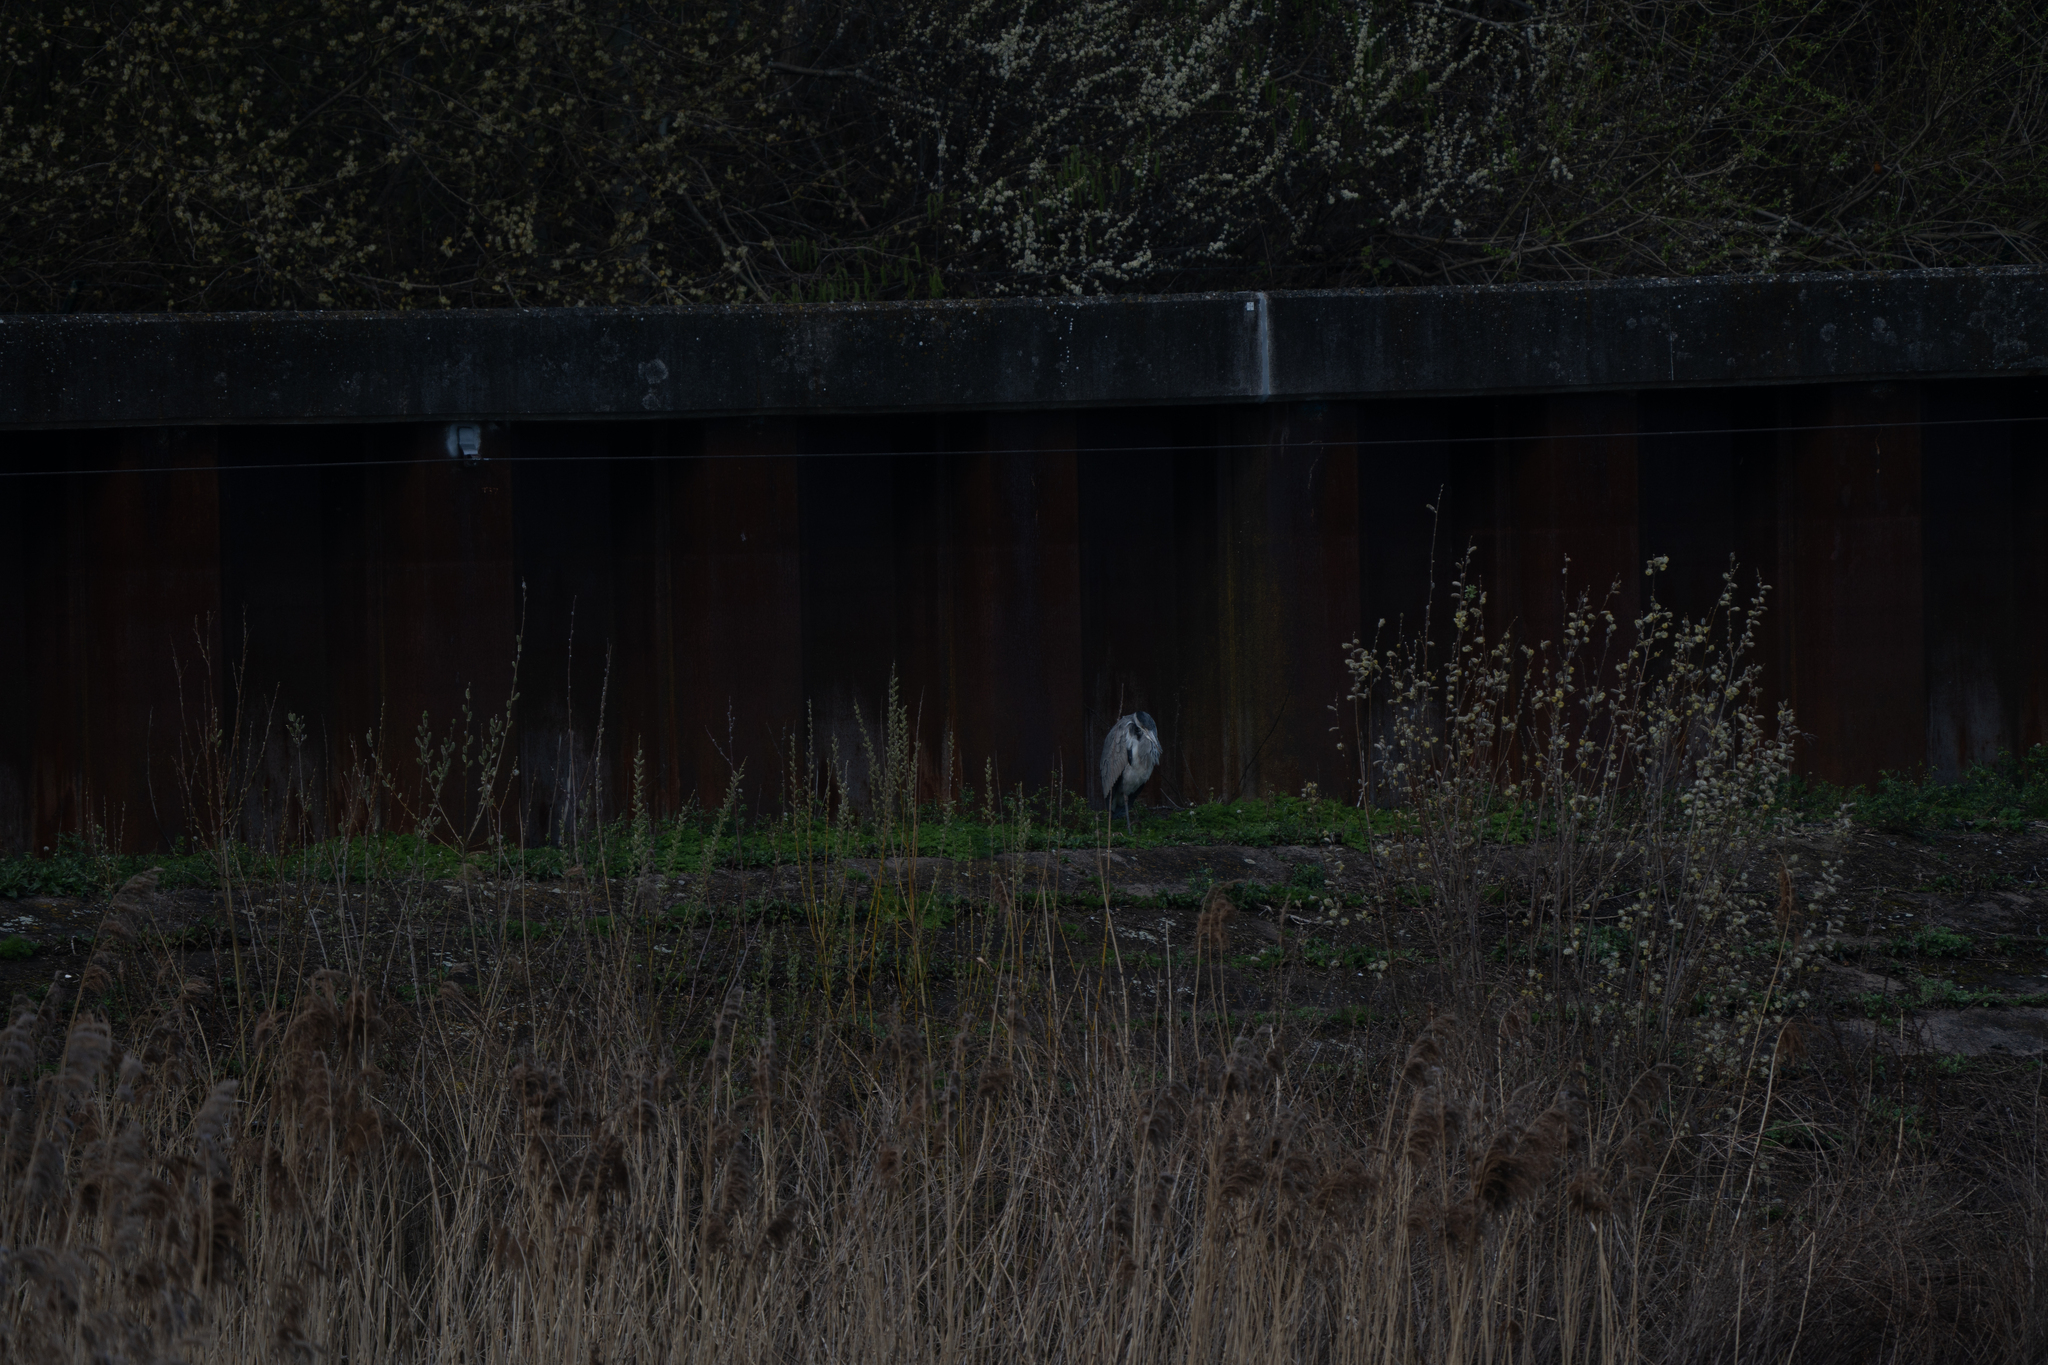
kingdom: Animalia
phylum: Chordata
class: Aves
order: Pelecaniformes
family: Ardeidae
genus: Ardea
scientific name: Ardea cinerea
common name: Grey heron
